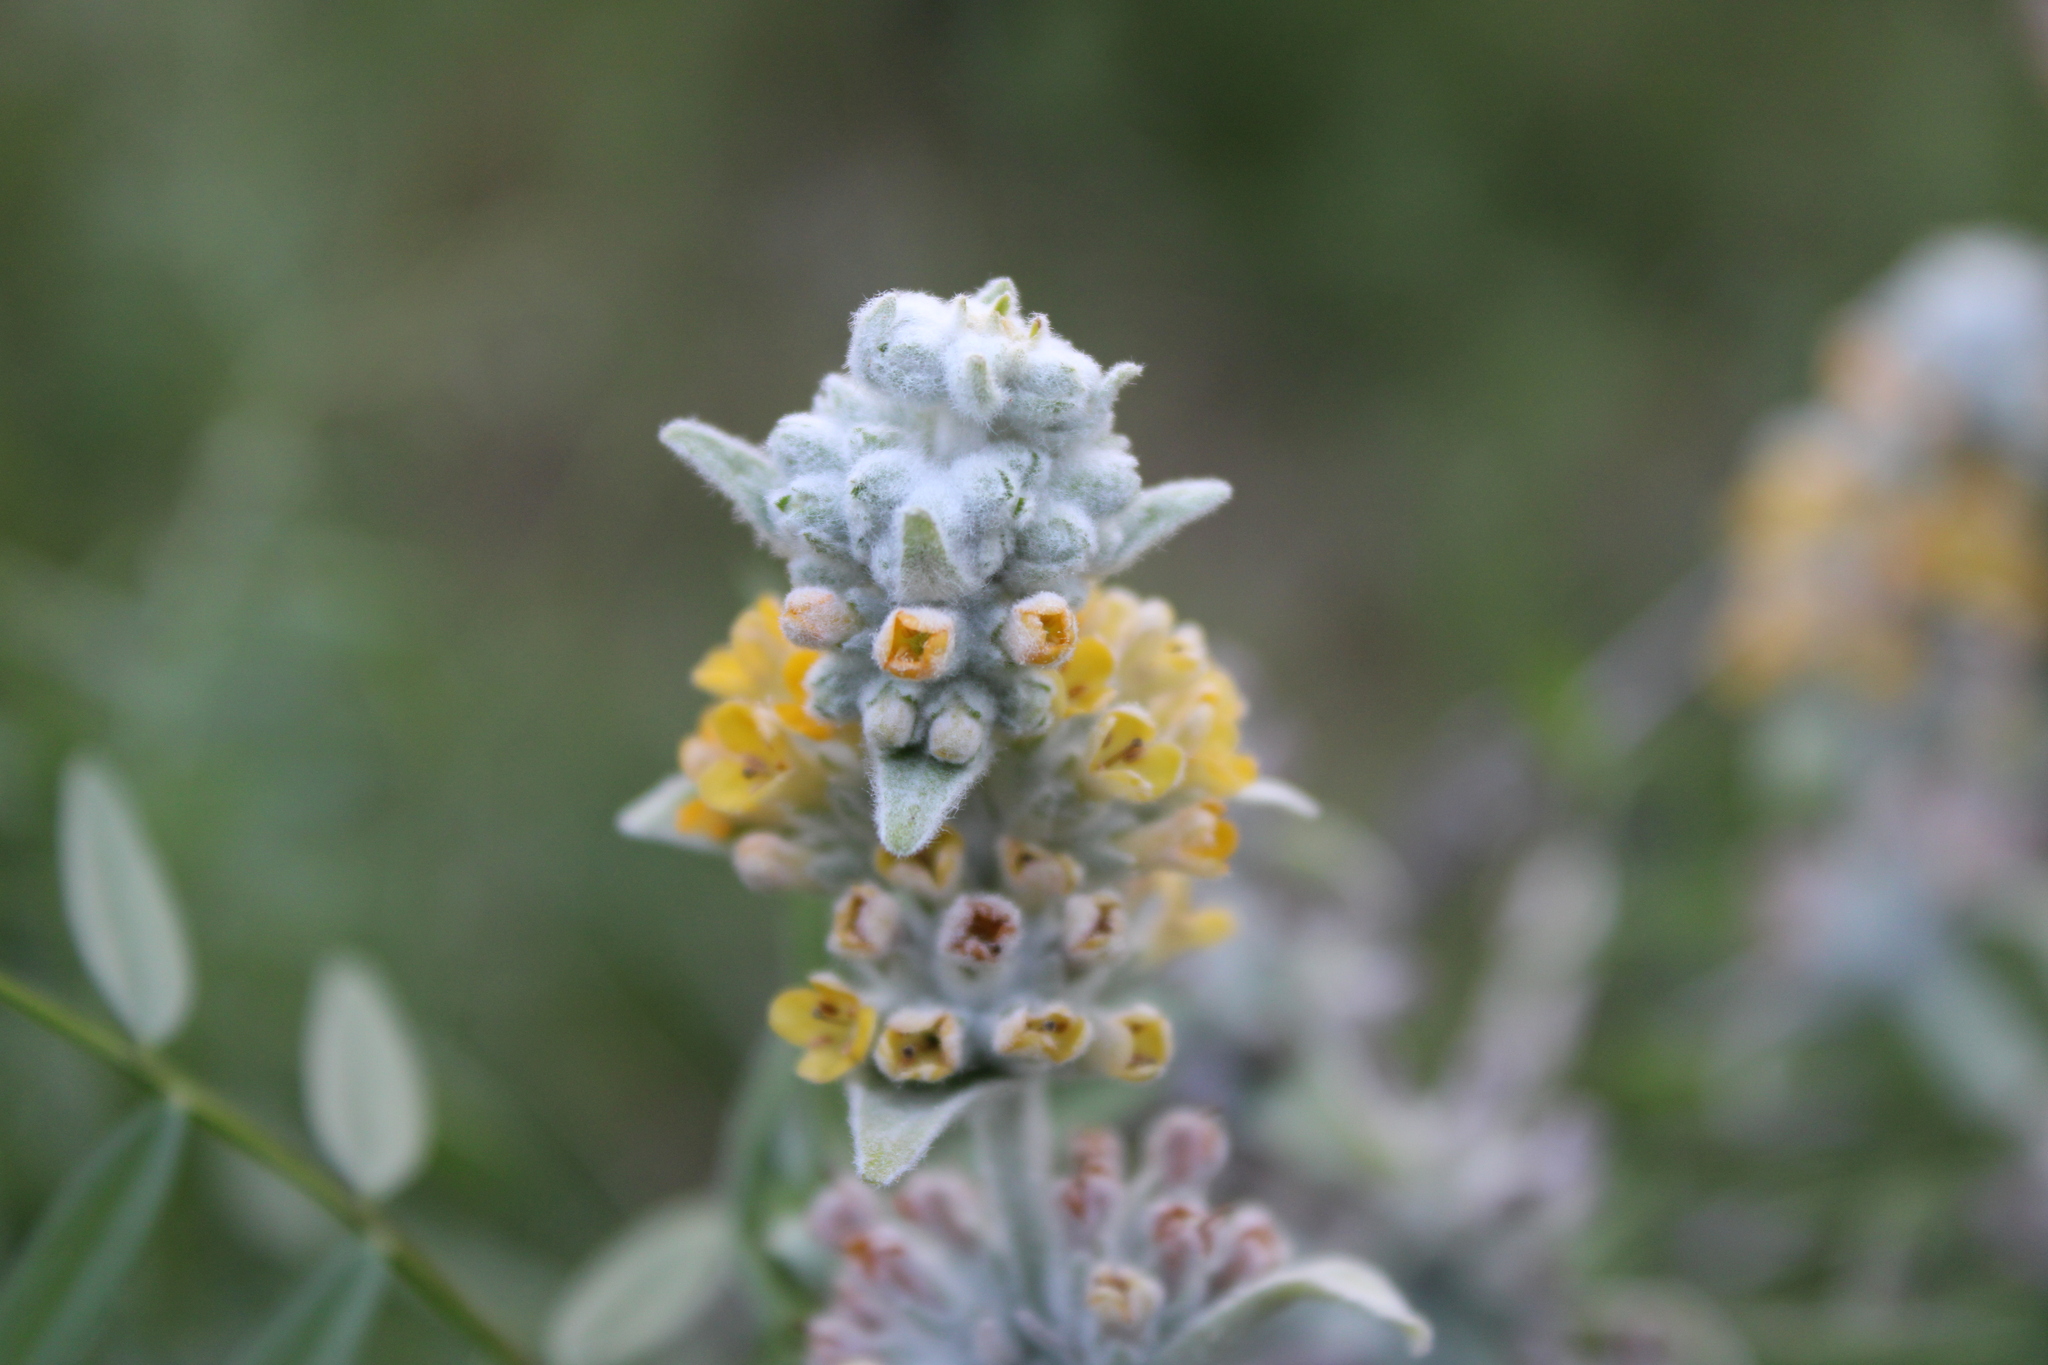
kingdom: Plantae
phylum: Tracheophyta
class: Magnoliopsida
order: Lamiales
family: Scrophulariaceae
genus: Buddleja
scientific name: Buddleja stachyoides
